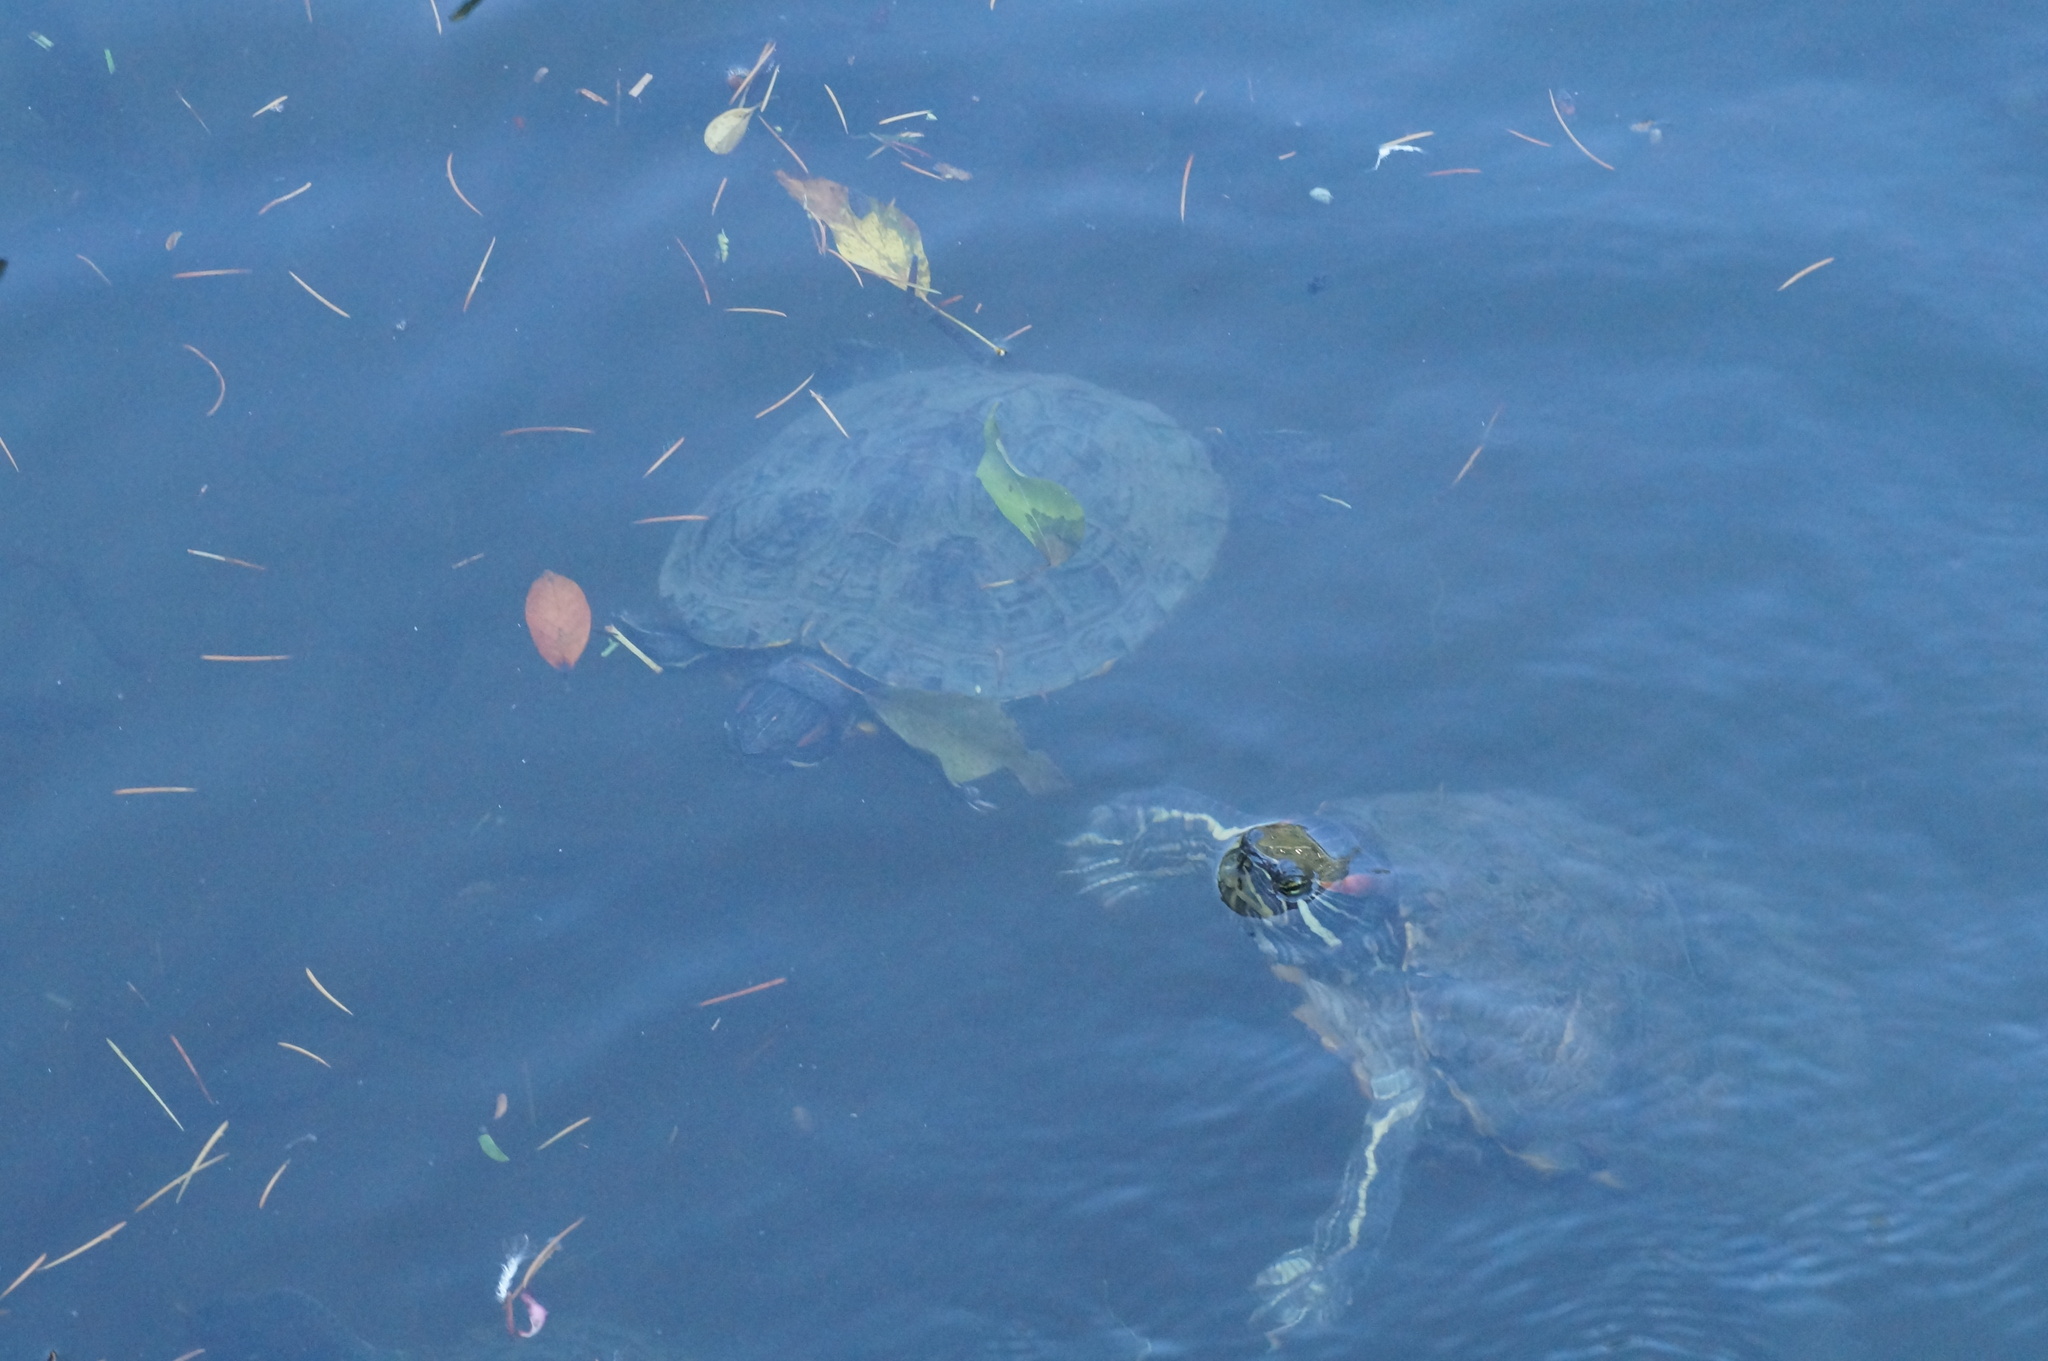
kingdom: Animalia
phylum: Chordata
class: Testudines
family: Emydidae
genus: Trachemys
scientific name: Trachemys scripta
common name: Slider
